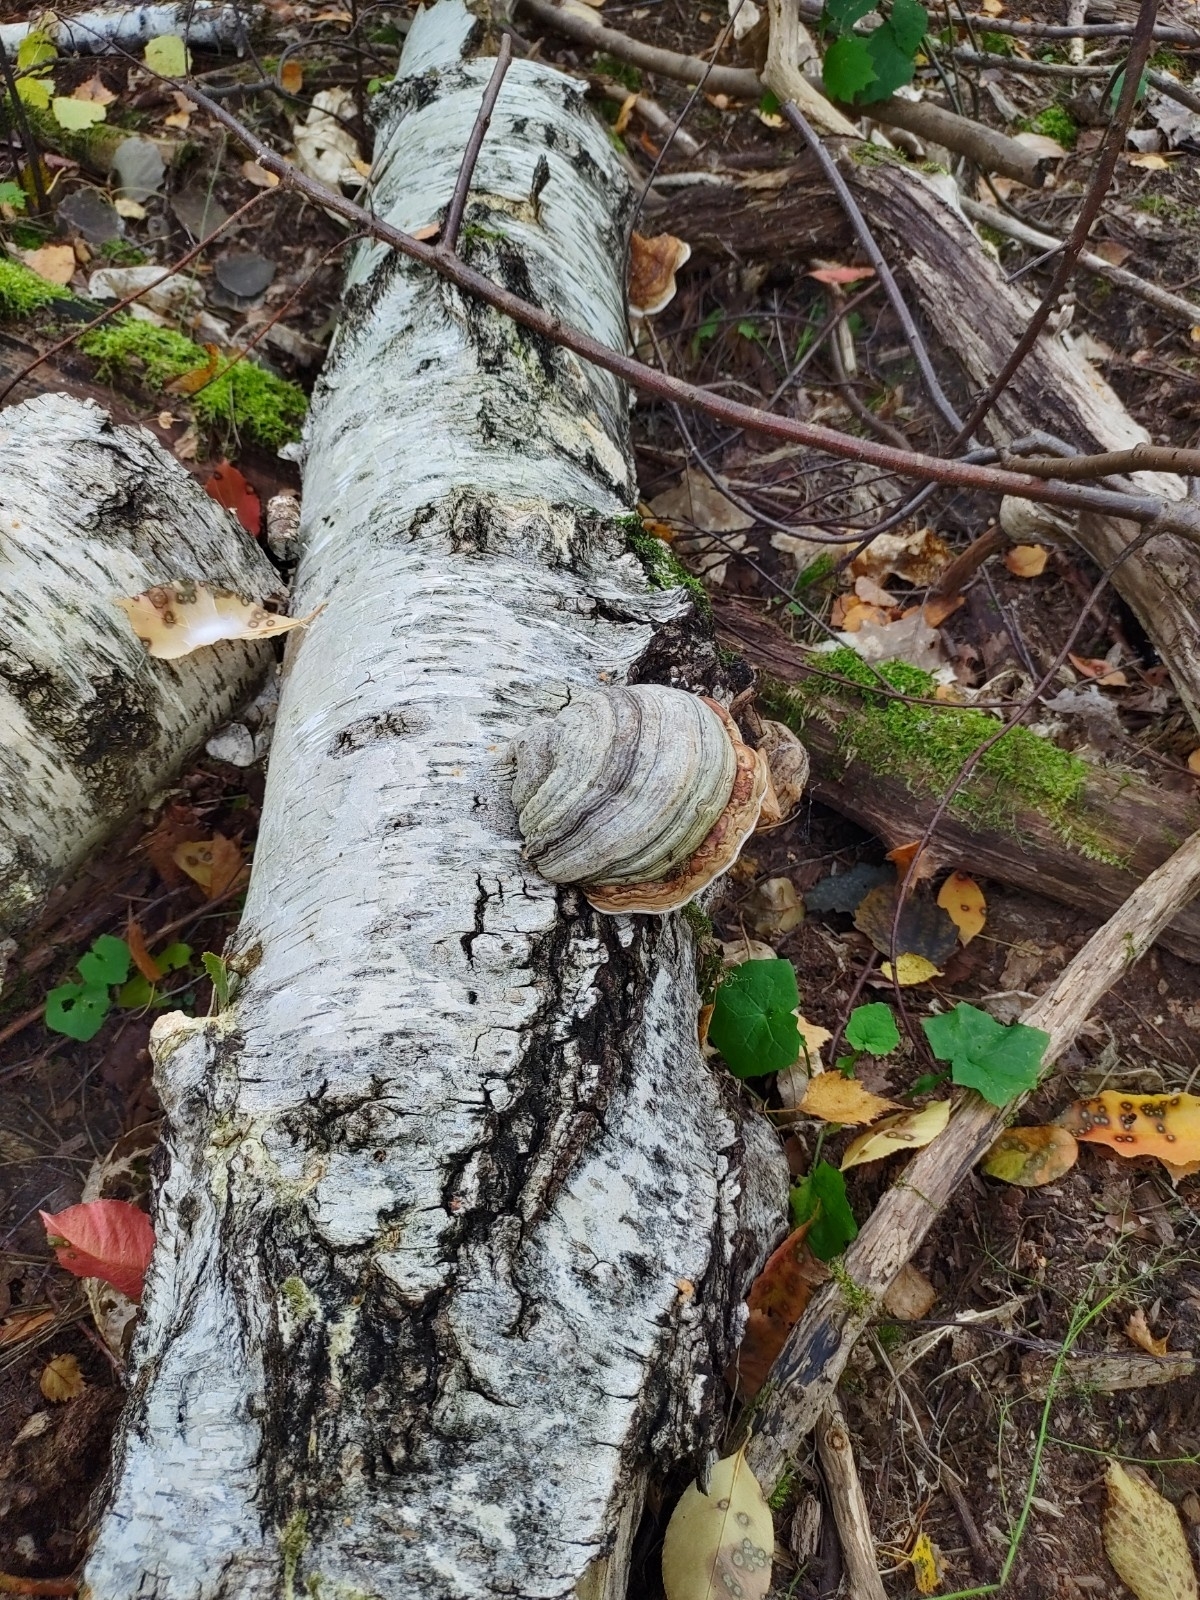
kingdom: Fungi
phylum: Basidiomycota
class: Agaricomycetes
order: Polyporales
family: Polyporaceae
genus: Fomes
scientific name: Fomes fomentarius
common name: Hoof fungus
